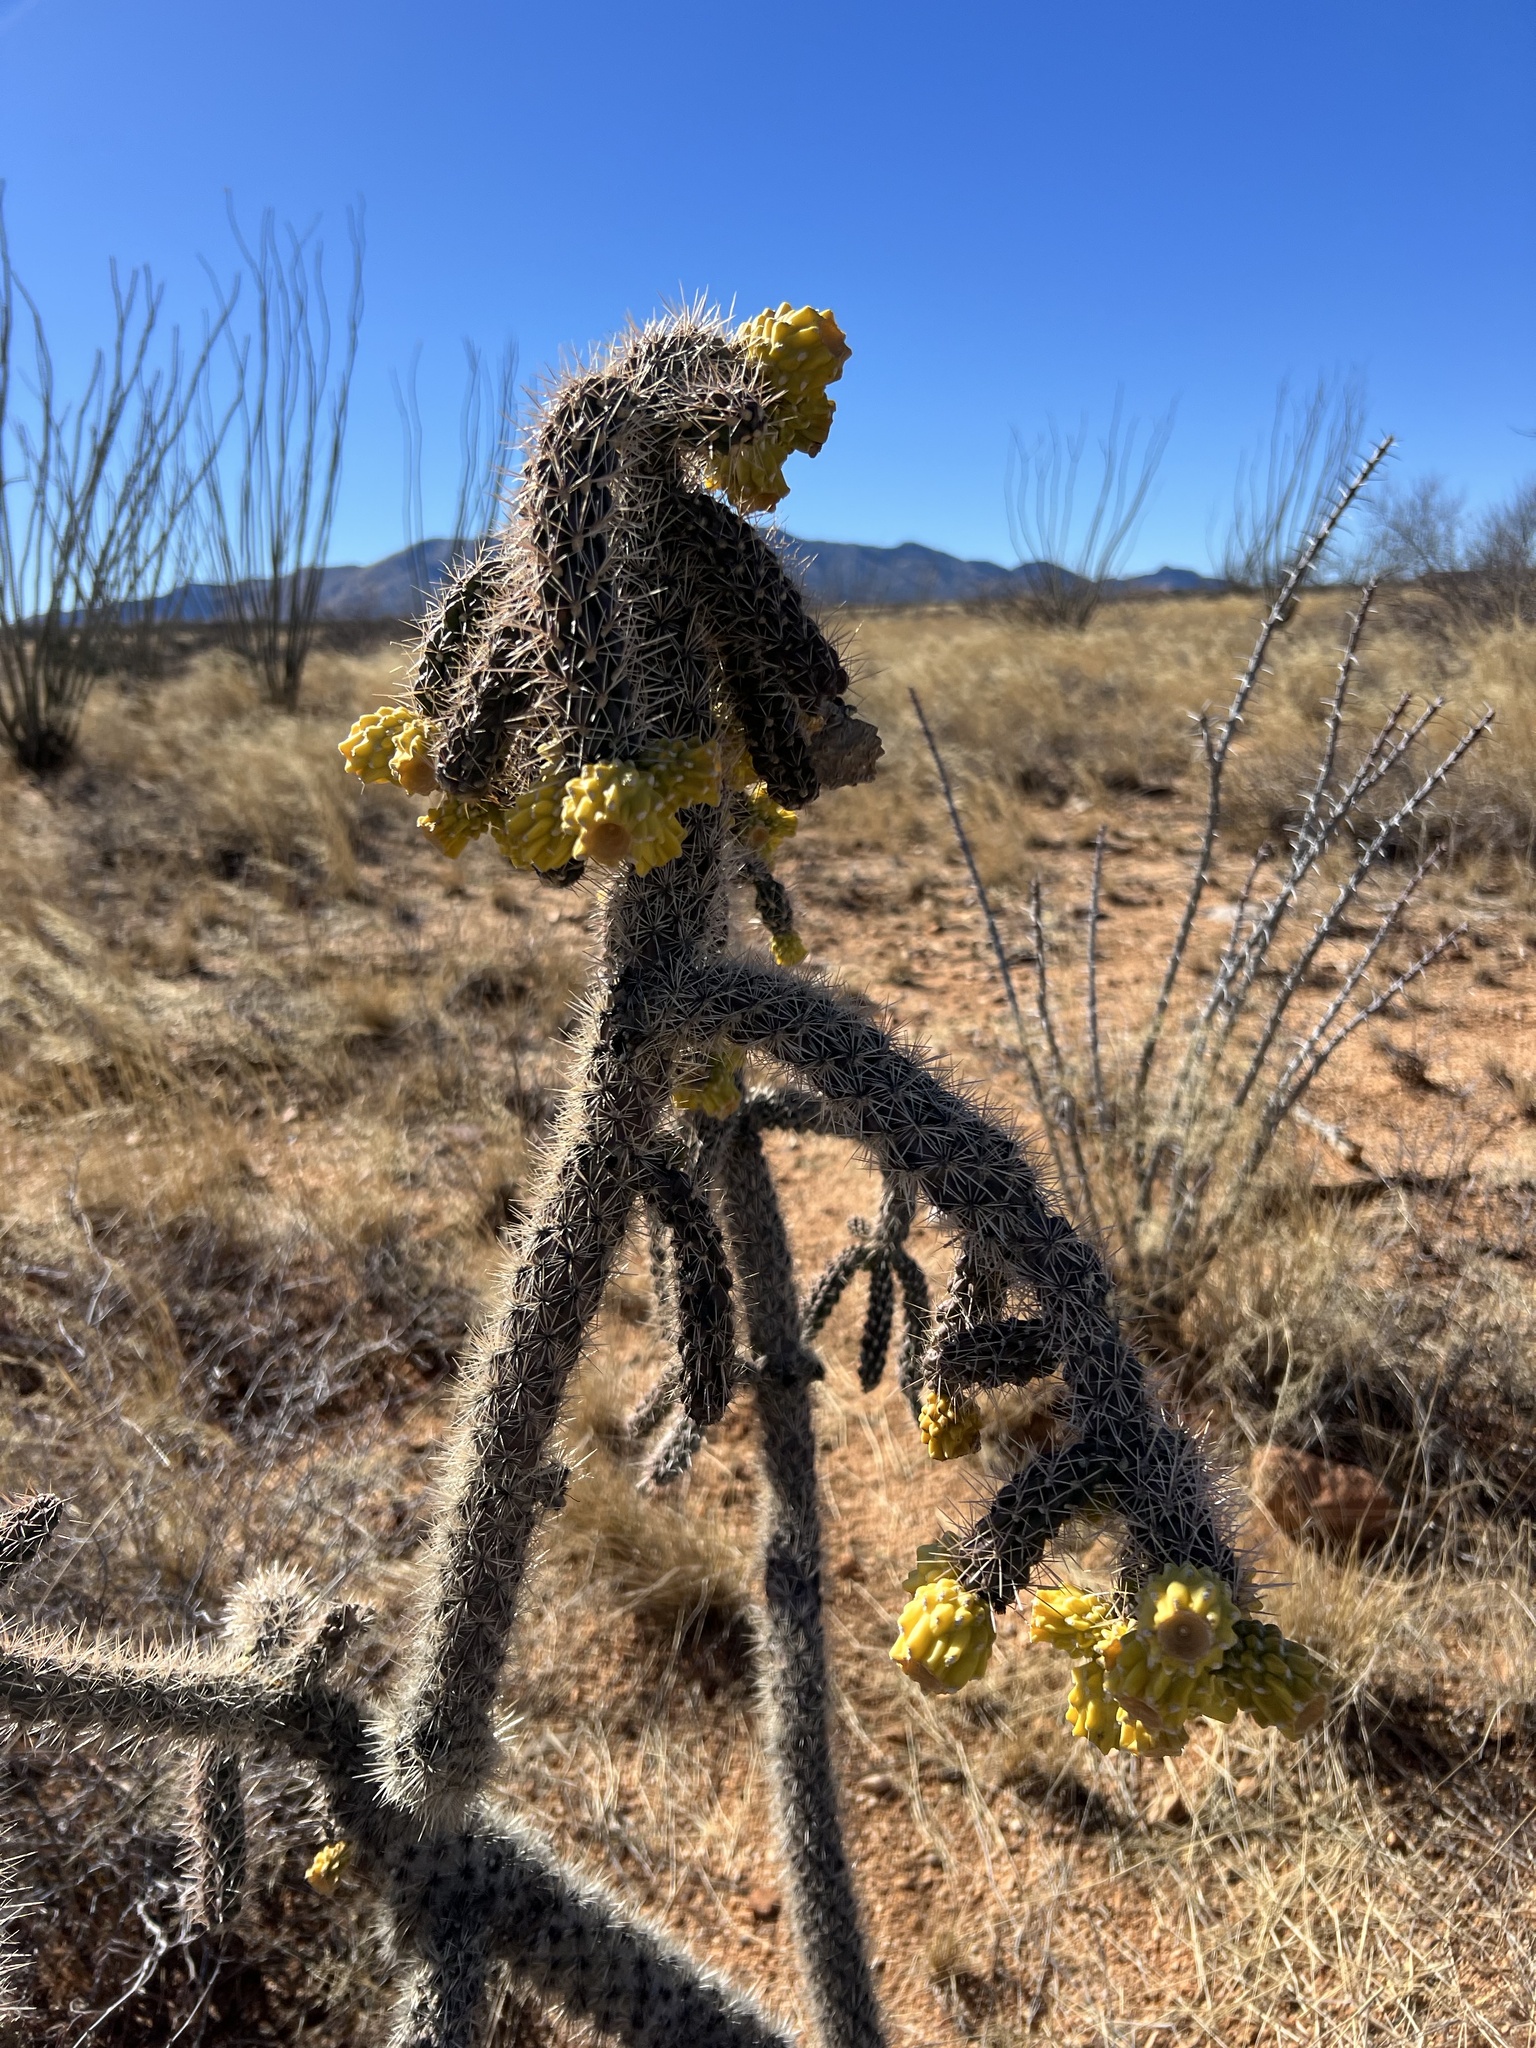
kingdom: Plantae
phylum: Tracheophyta
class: Magnoliopsida
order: Caryophyllales
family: Cactaceae
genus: Cylindropuntia
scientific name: Cylindropuntia imbricata
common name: Candelabrum cactus
